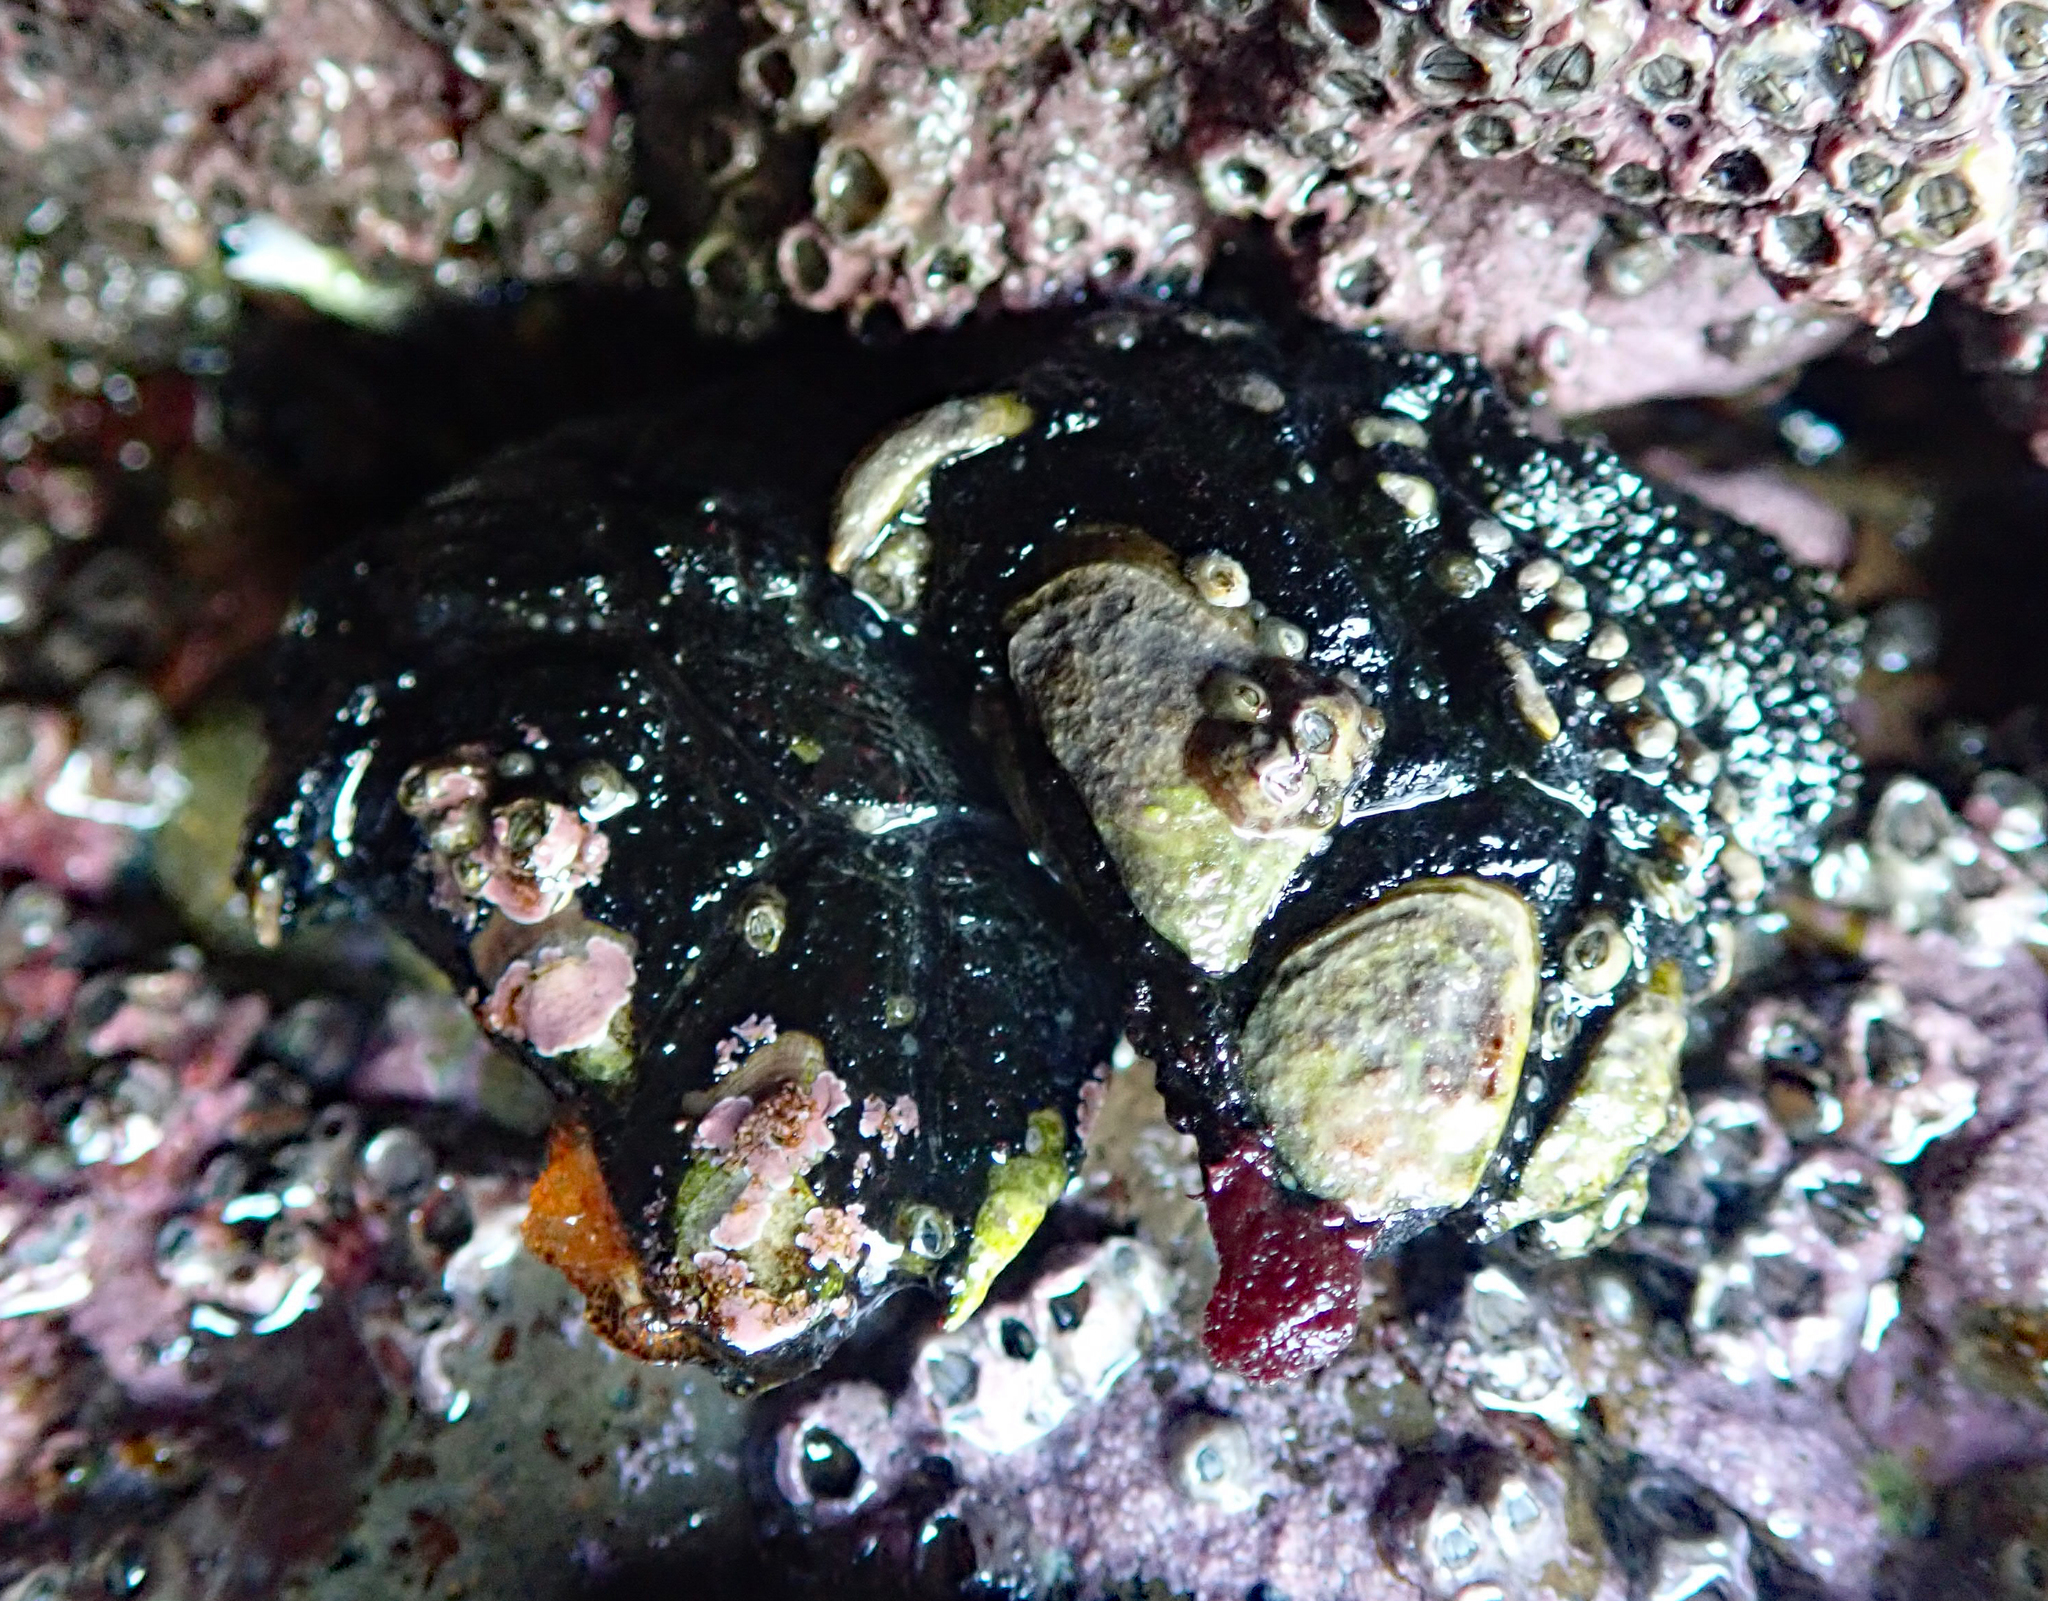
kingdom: Animalia
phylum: Arthropoda
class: Maxillopoda
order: Pedunculata
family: Calanticidae
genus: Calantica
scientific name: Calantica spinosa
